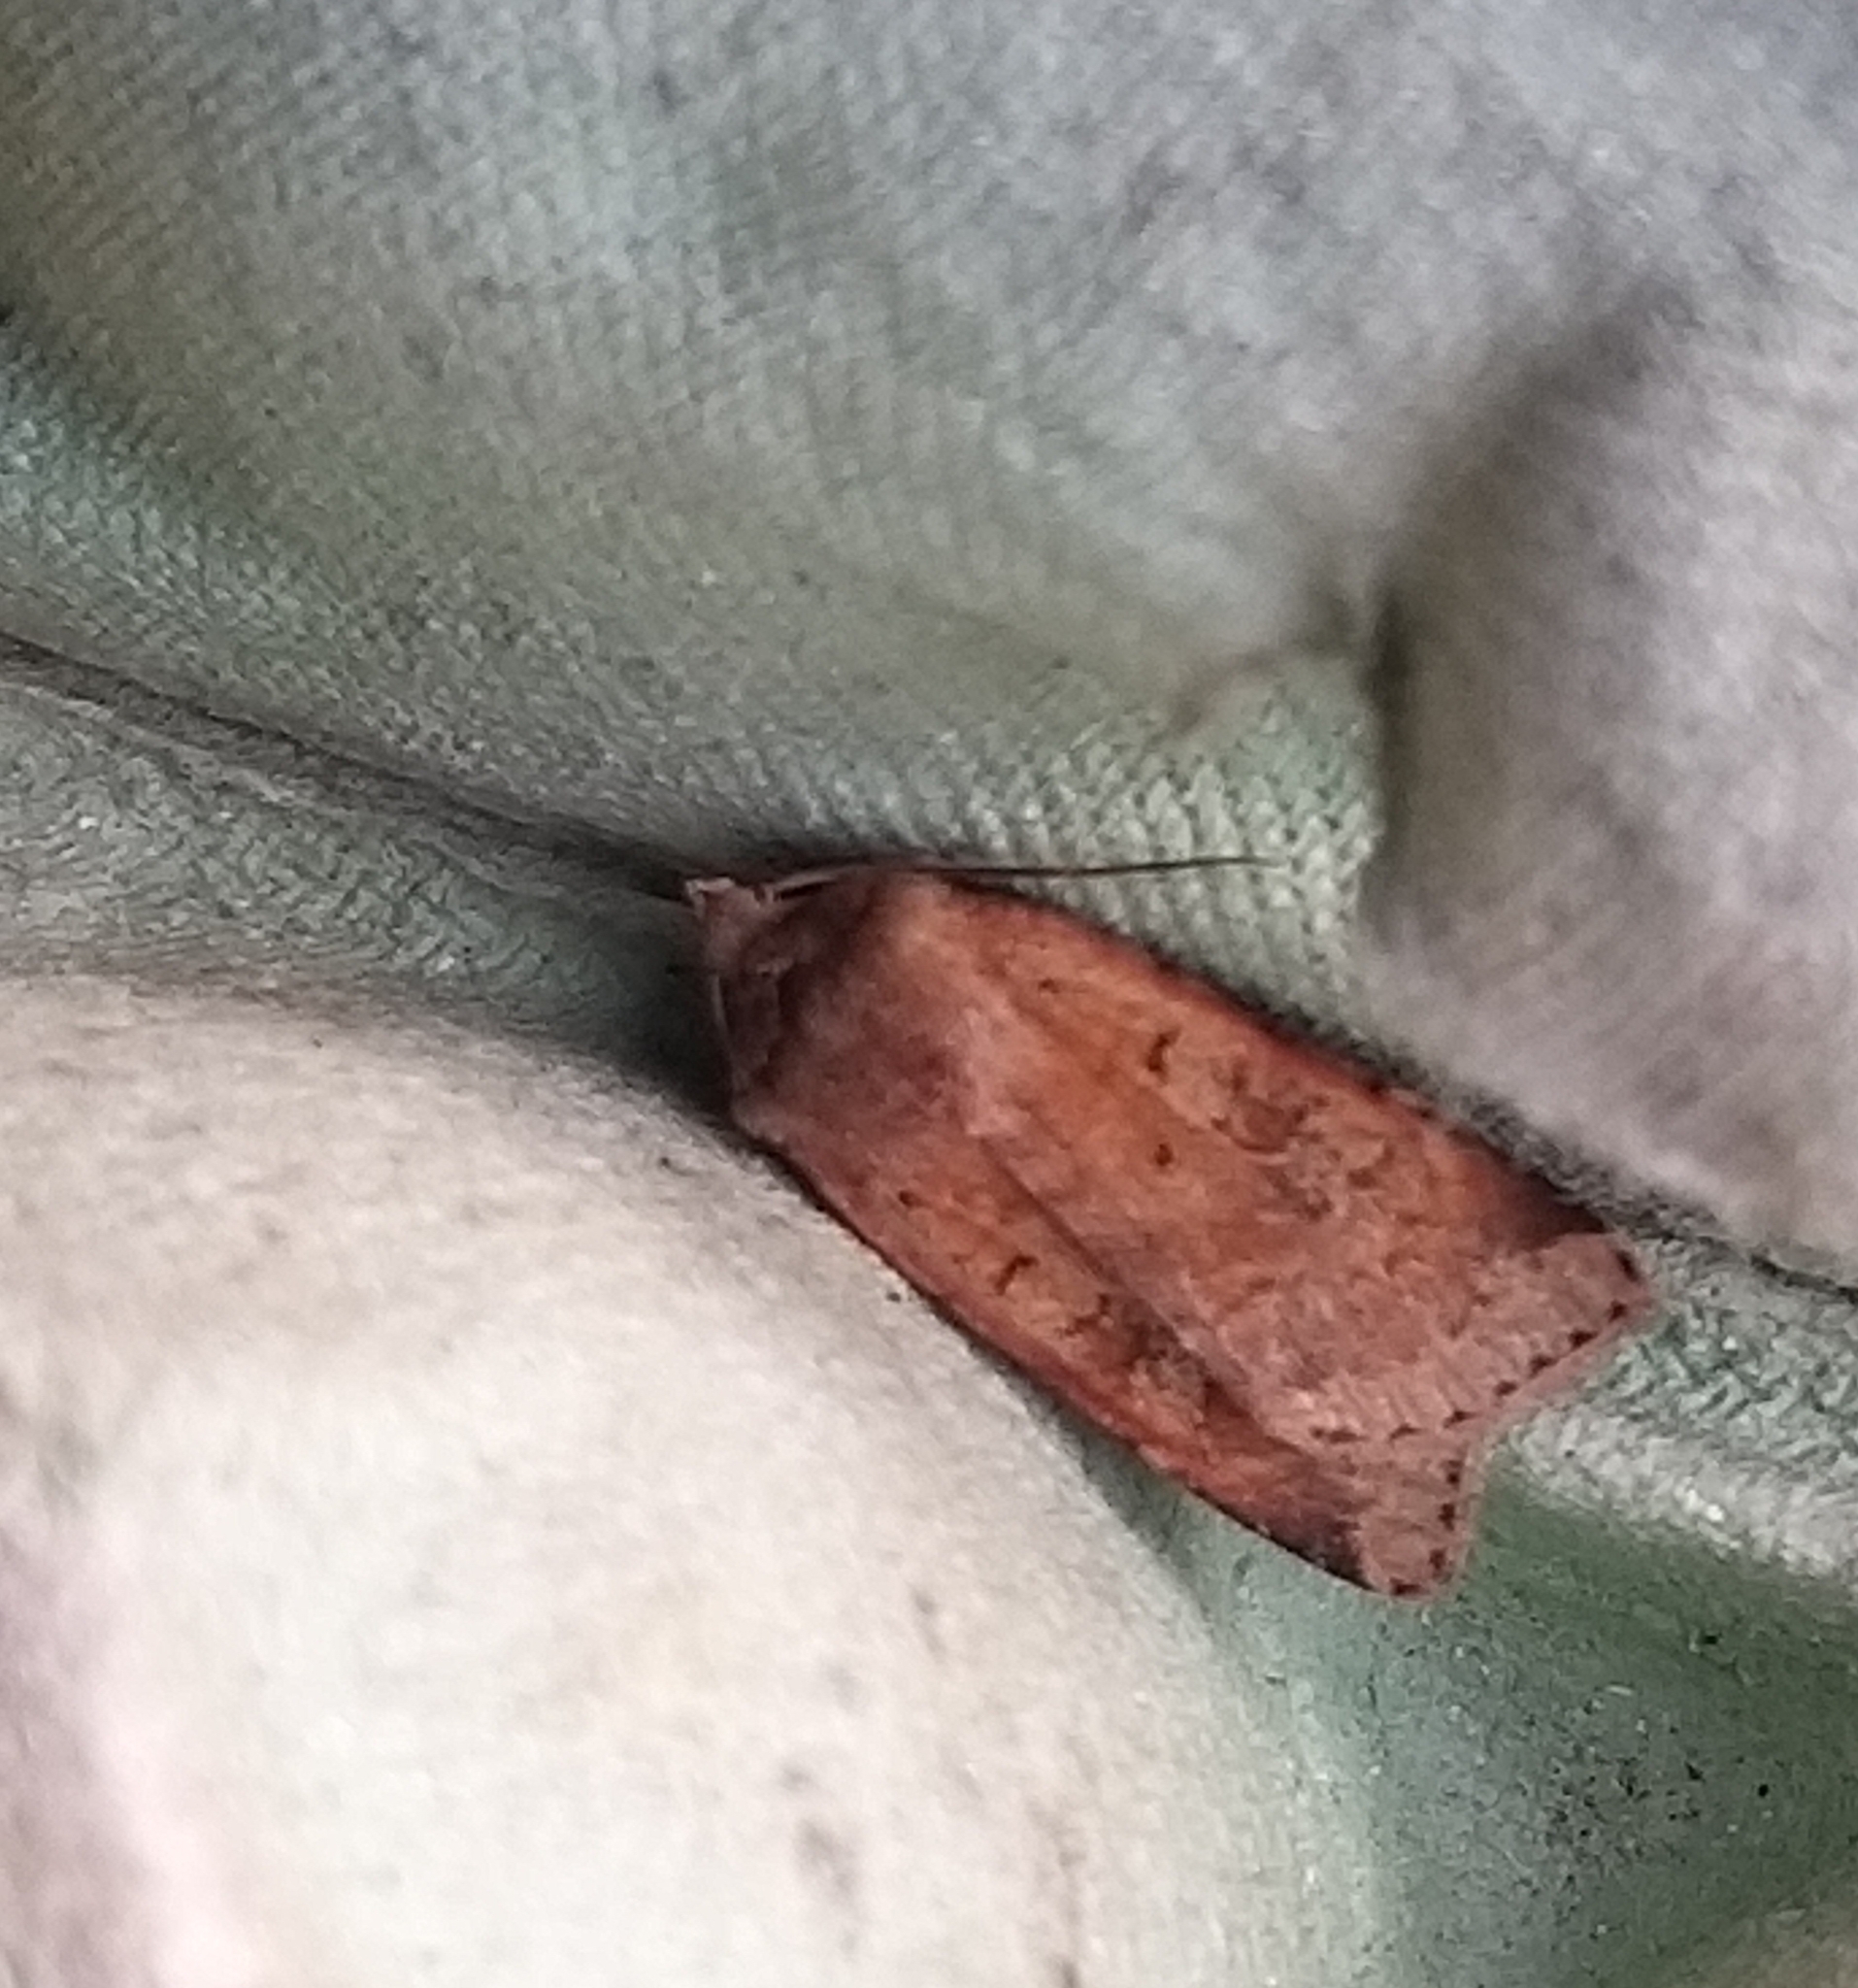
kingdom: Animalia
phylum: Arthropoda
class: Insecta
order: Lepidoptera
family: Noctuidae
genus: Diarsia
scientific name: Diarsia mendica
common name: Ingrailed clay
